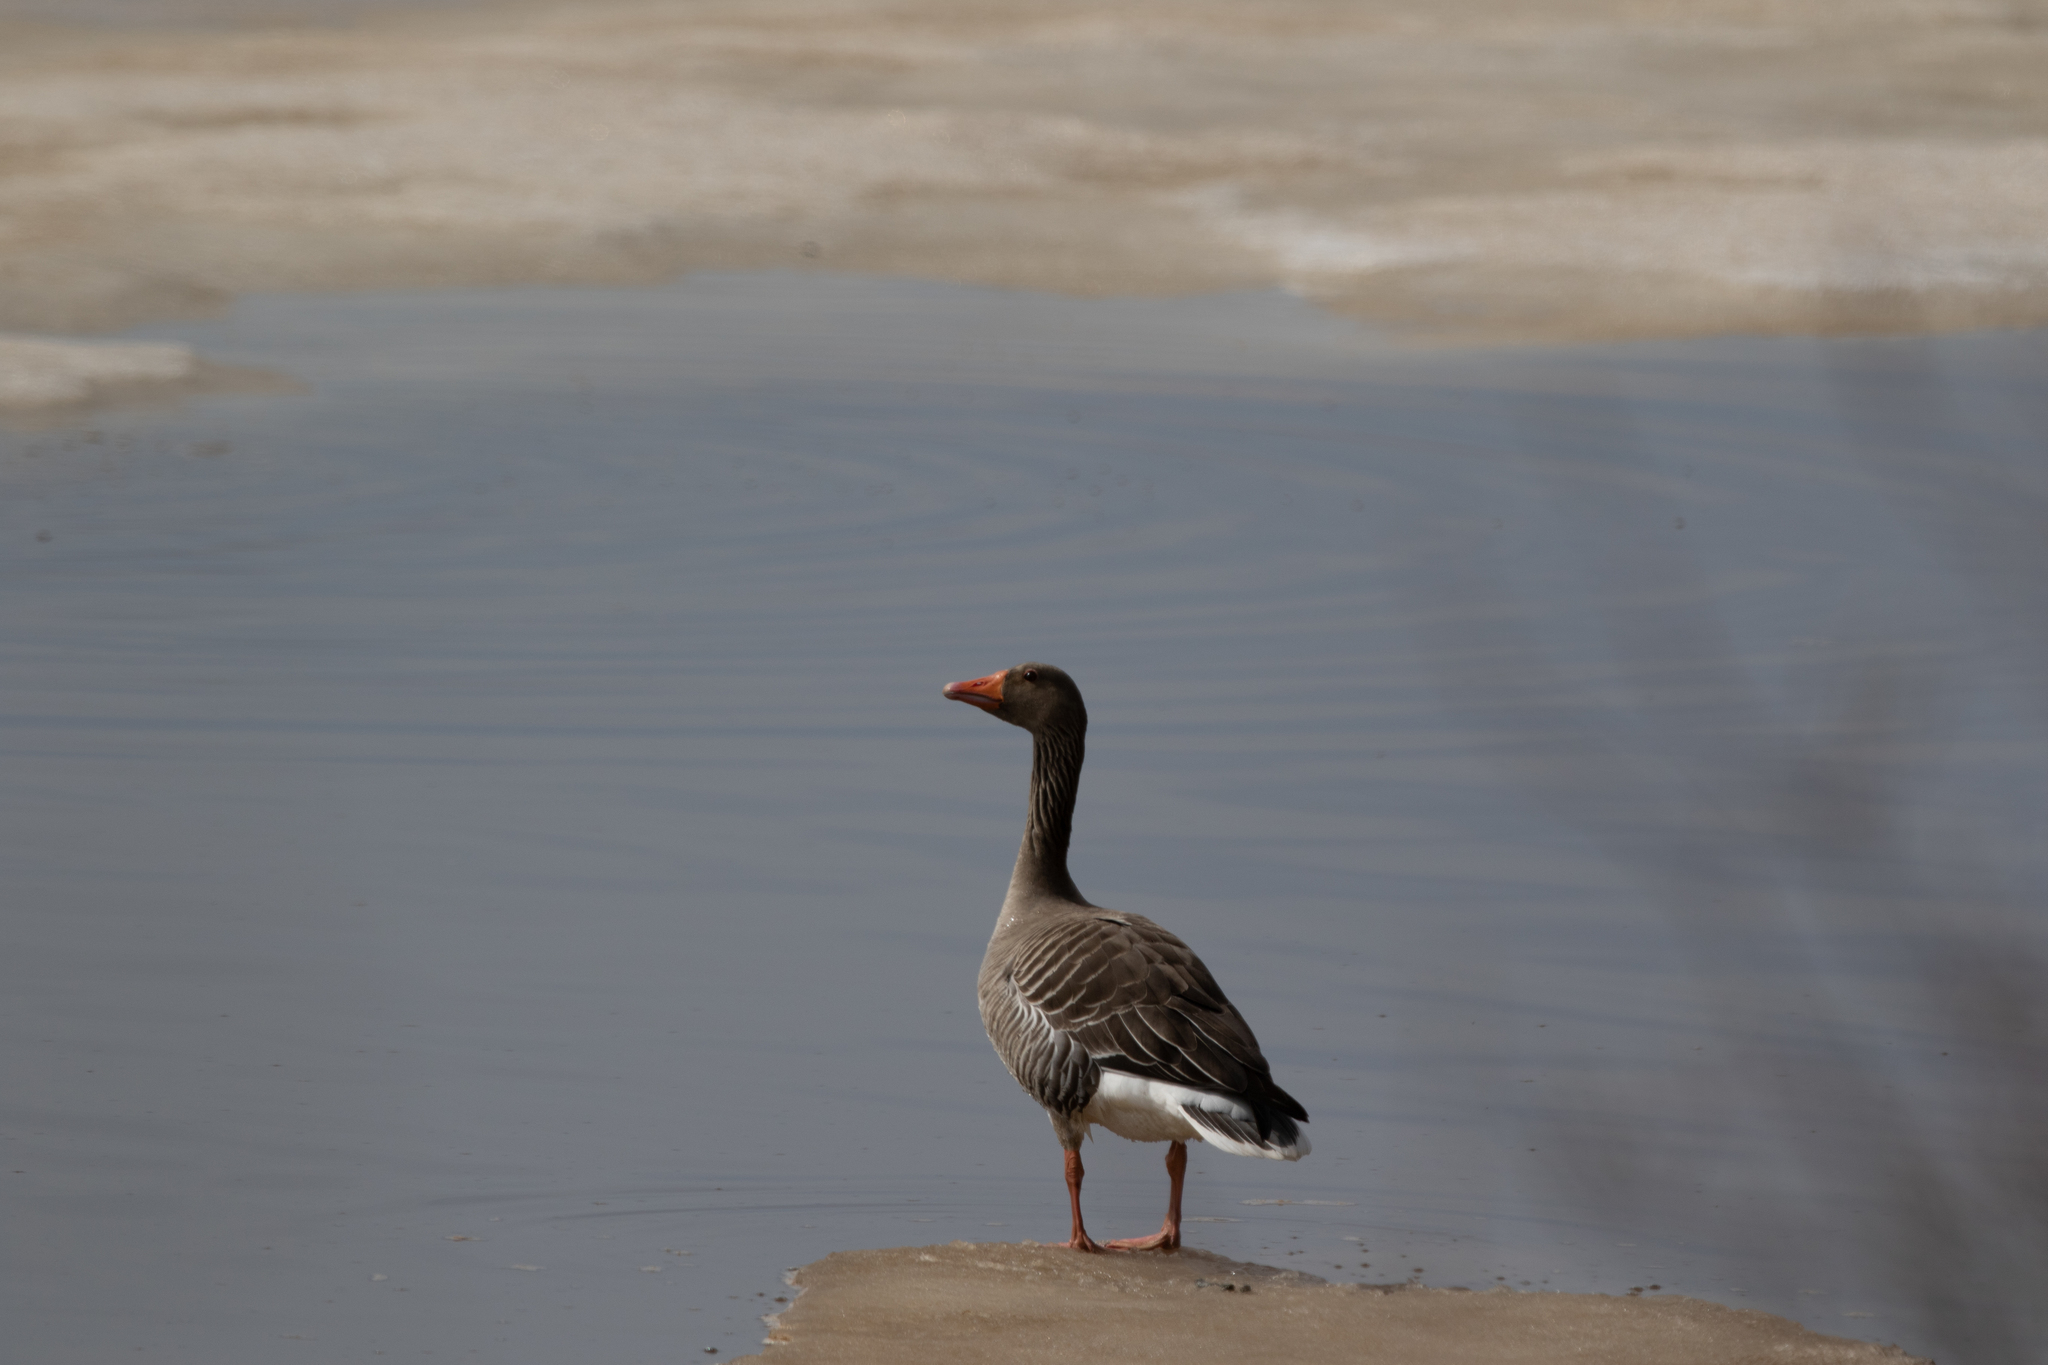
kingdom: Animalia
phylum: Chordata
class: Aves
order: Anseriformes
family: Anatidae
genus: Anser
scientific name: Anser anser
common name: Greylag goose
